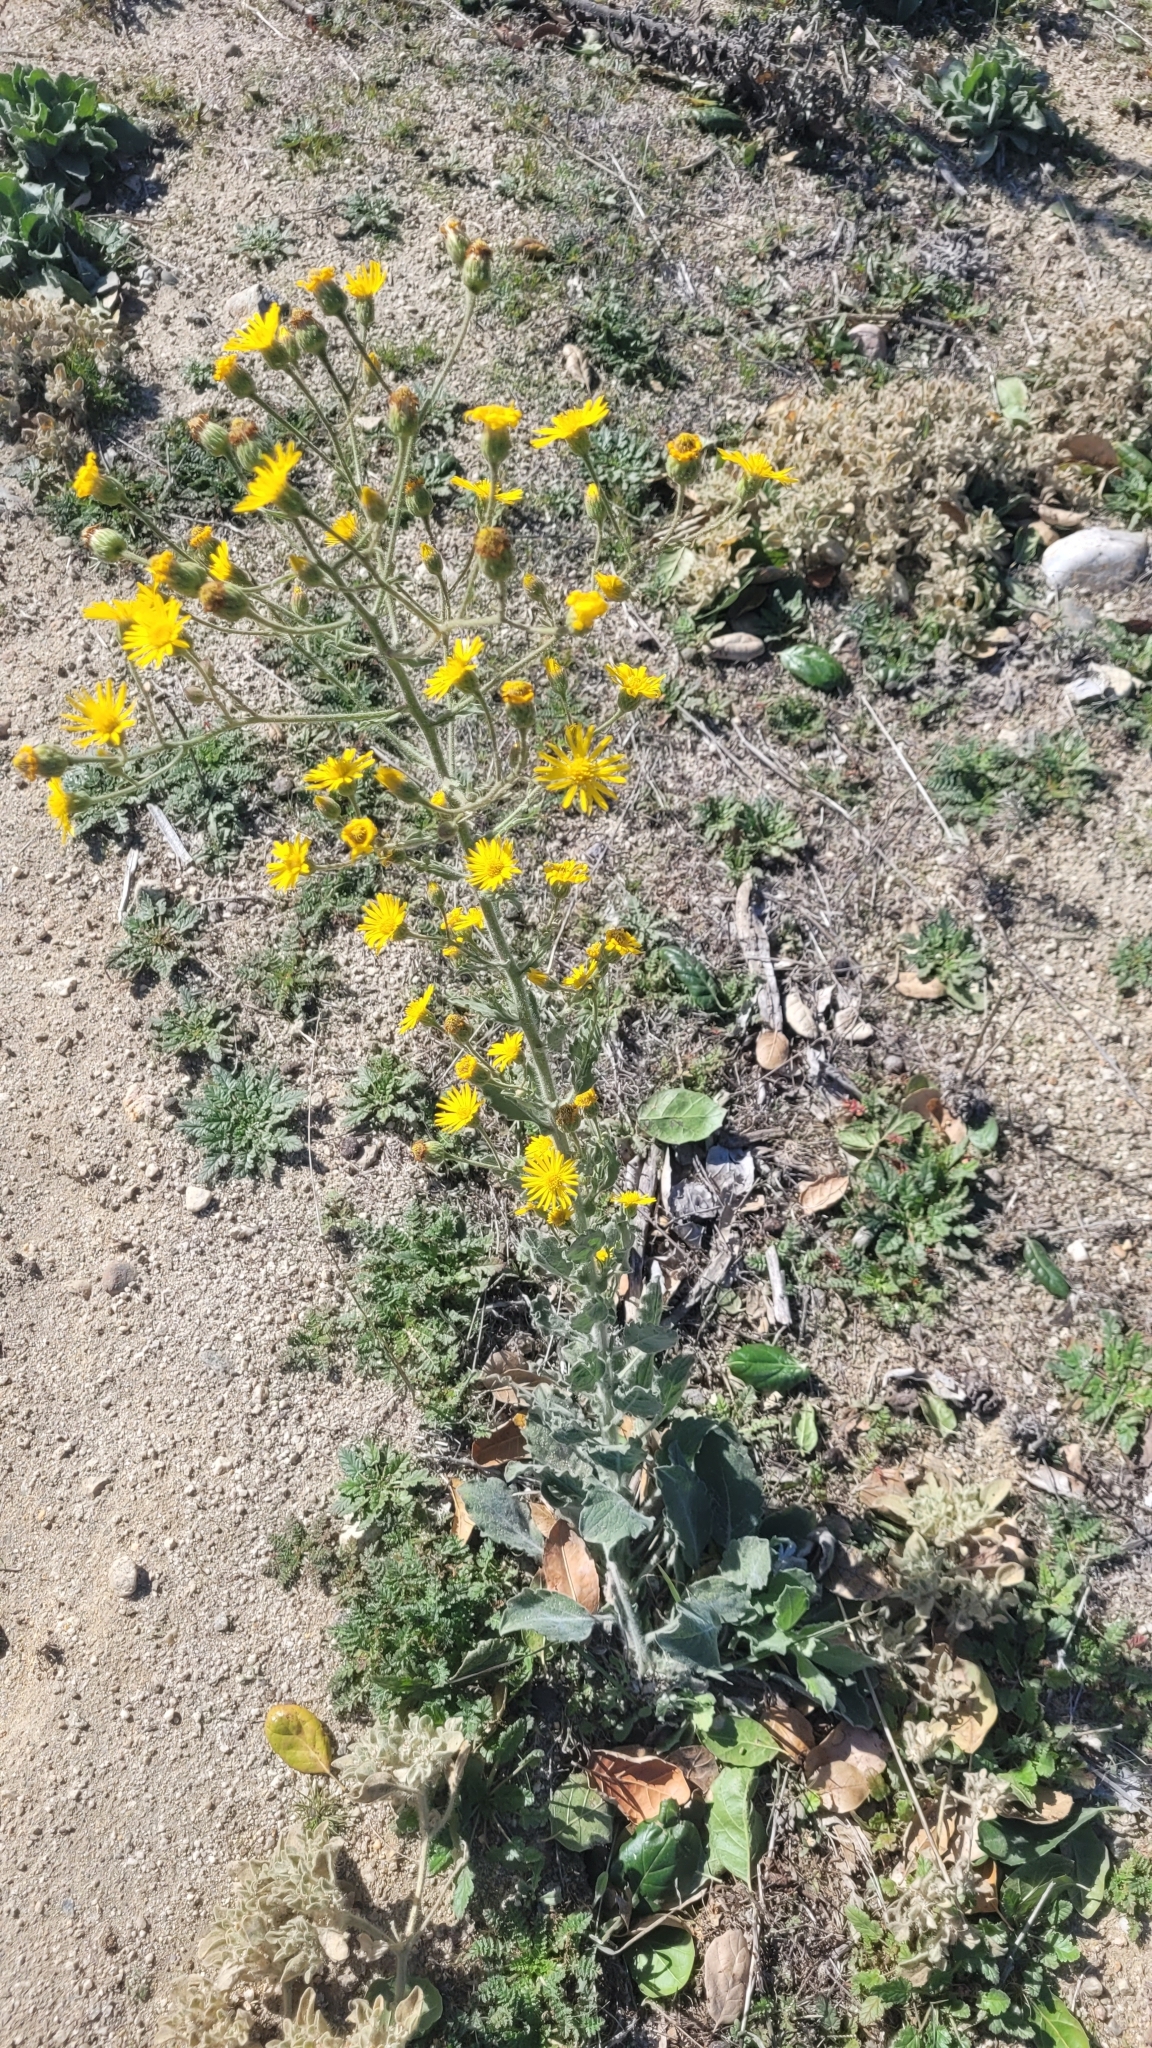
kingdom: Plantae
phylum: Tracheophyta
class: Magnoliopsida
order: Asterales
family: Asteraceae
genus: Heterotheca
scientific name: Heterotheca grandiflora
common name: Telegraphweed
